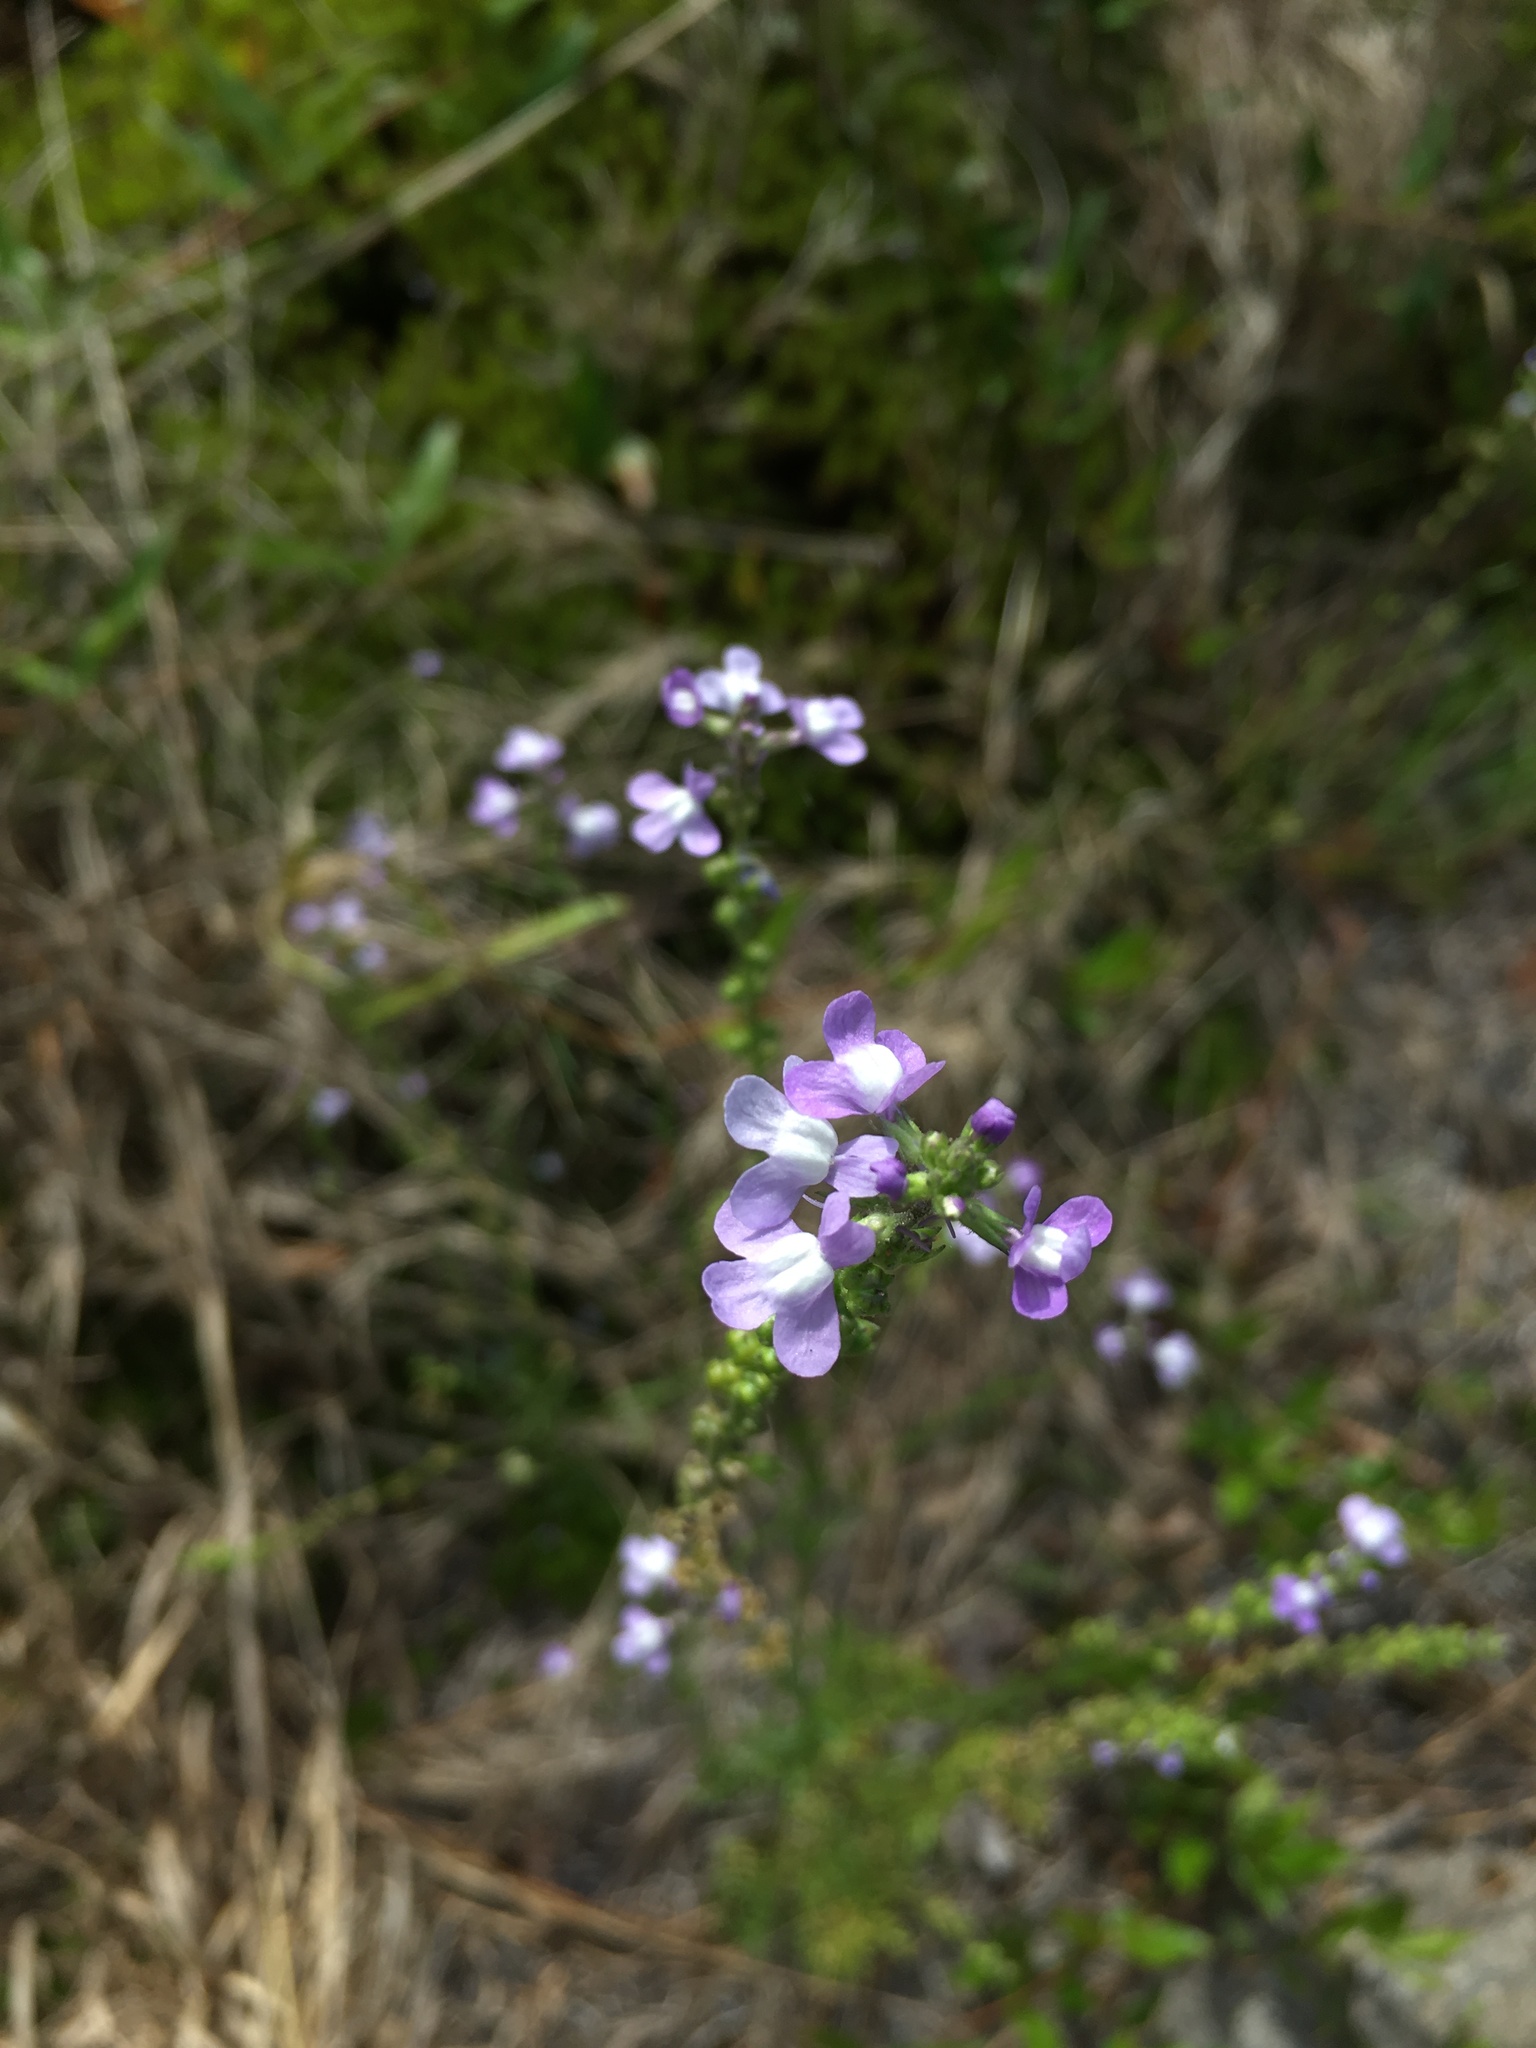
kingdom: Plantae
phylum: Tracheophyta
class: Magnoliopsida
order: Lamiales
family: Plantaginaceae
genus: Nuttallanthus
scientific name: Nuttallanthus canadensis
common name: Blue toadflax
